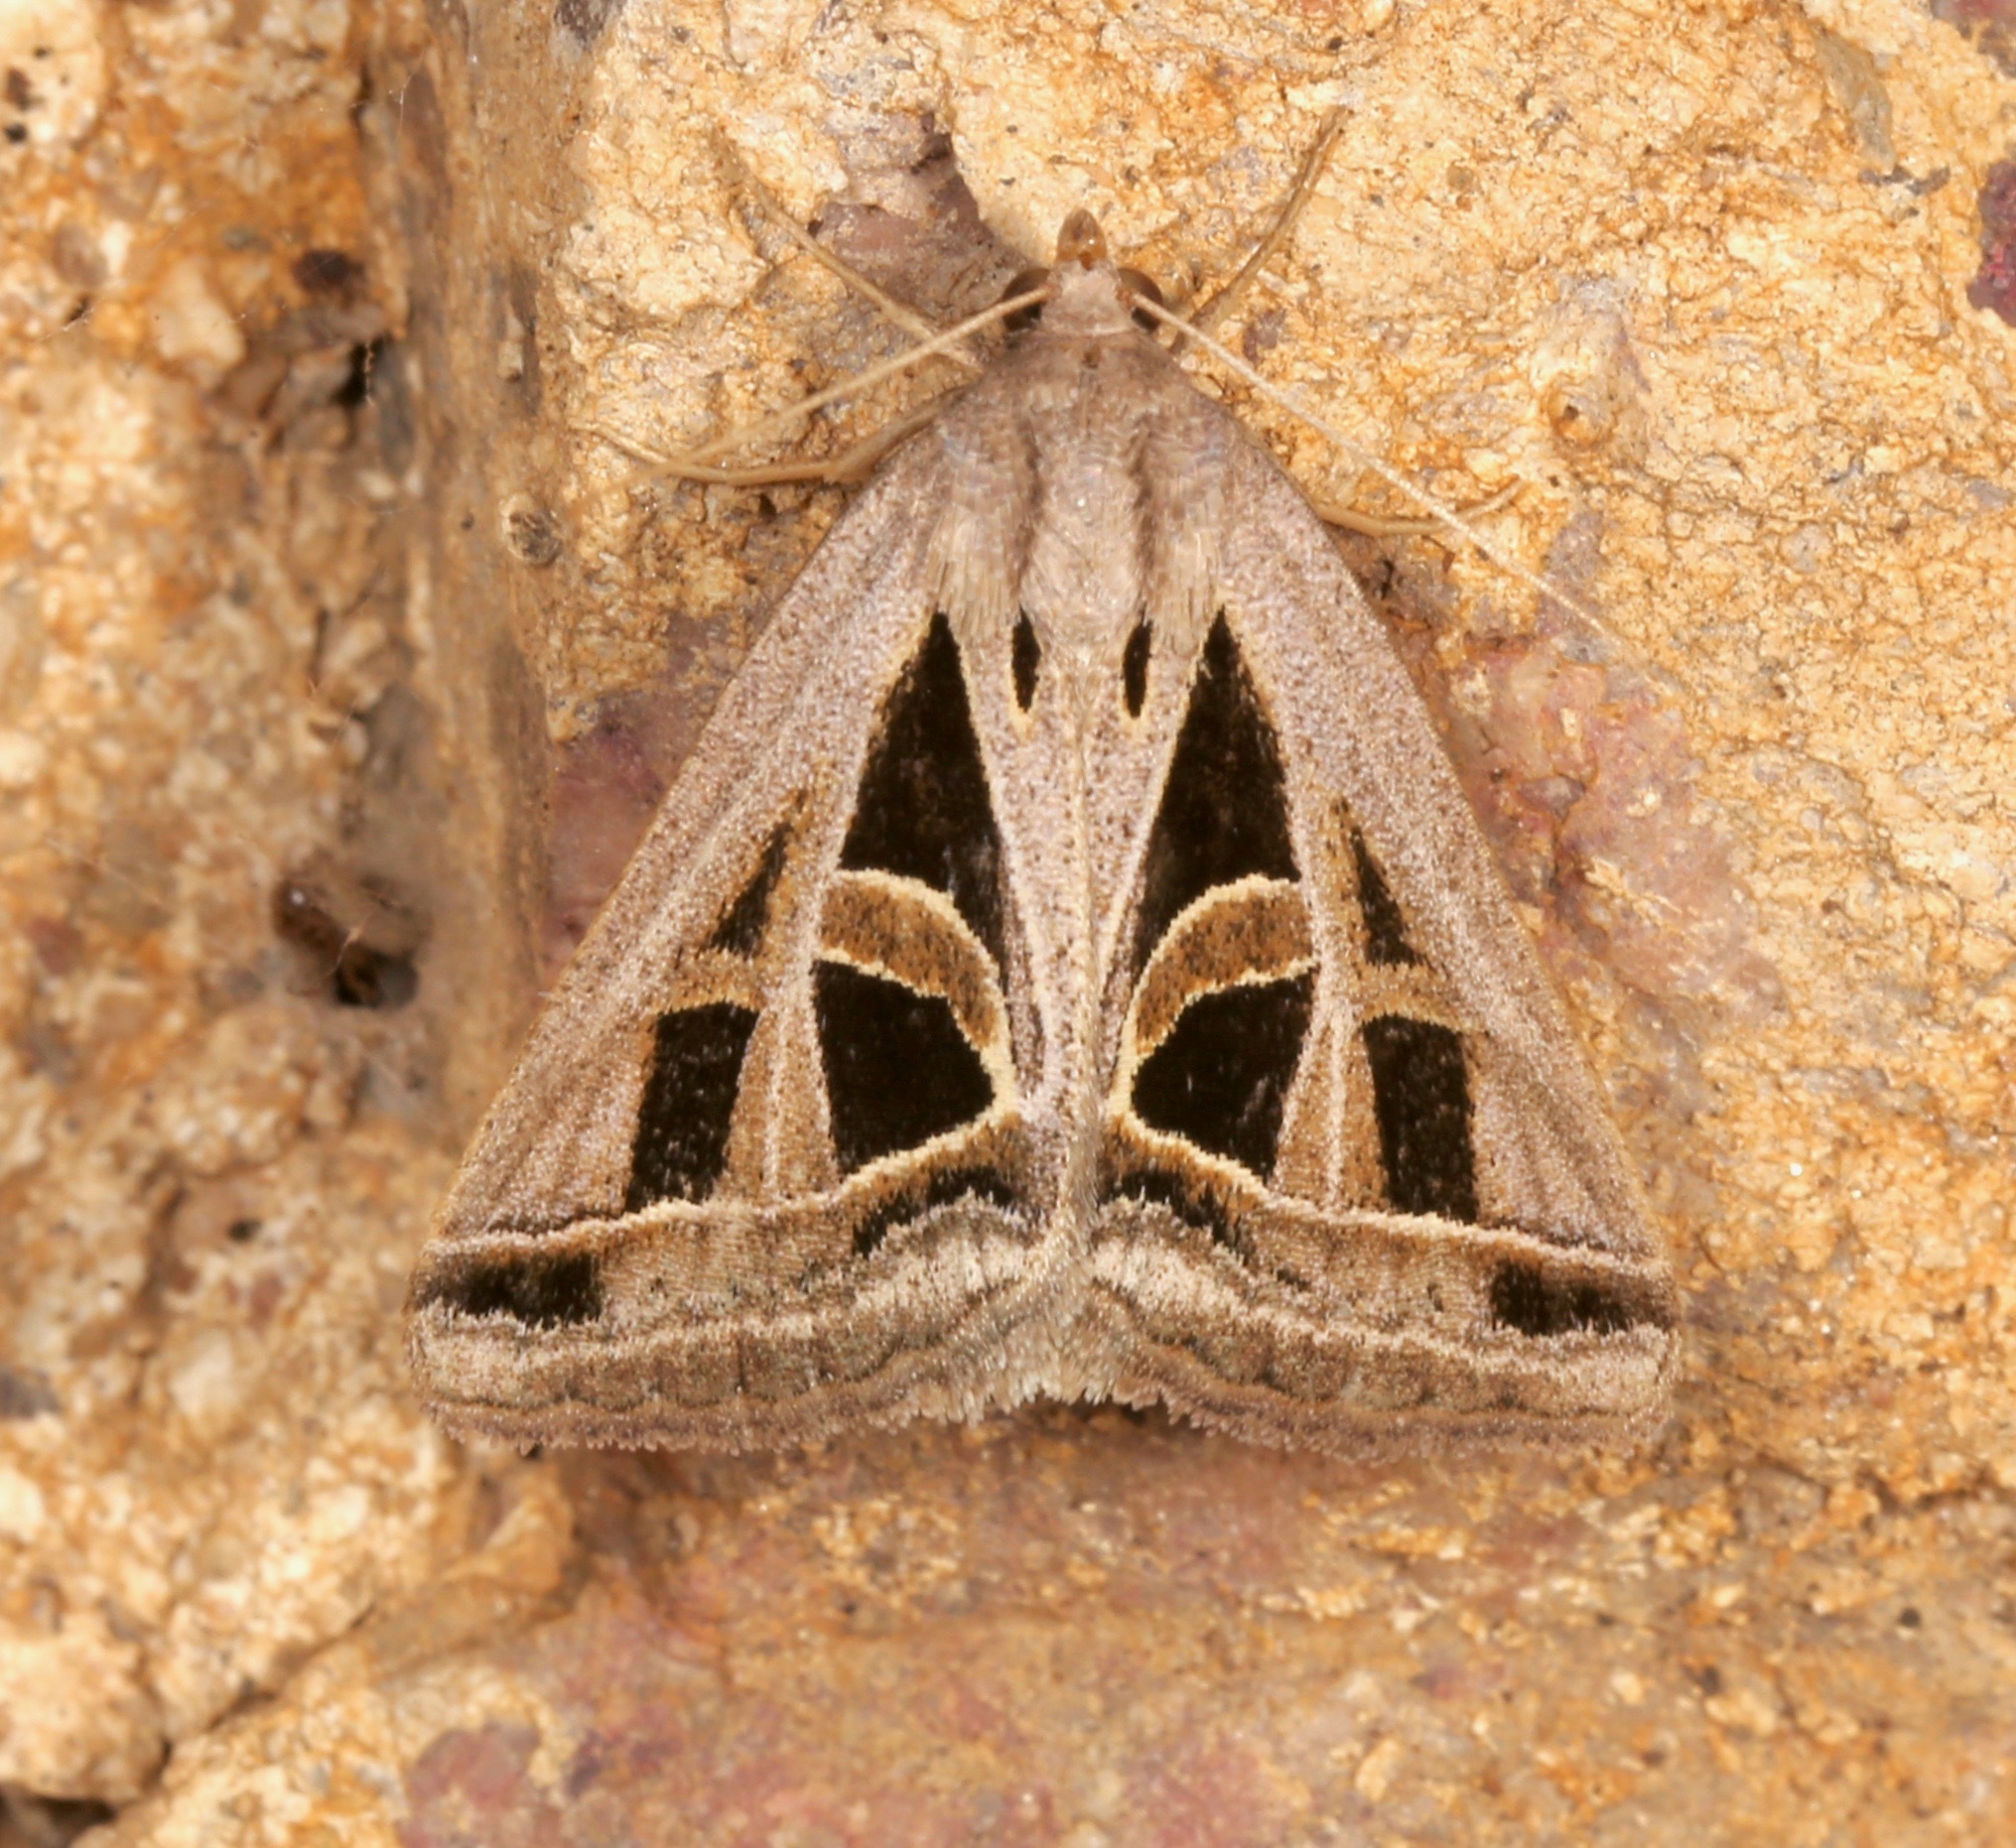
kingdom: Animalia
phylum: Arthropoda
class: Insecta
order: Lepidoptera
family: Erebidae
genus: Callistege
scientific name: Callistege diagonalis
